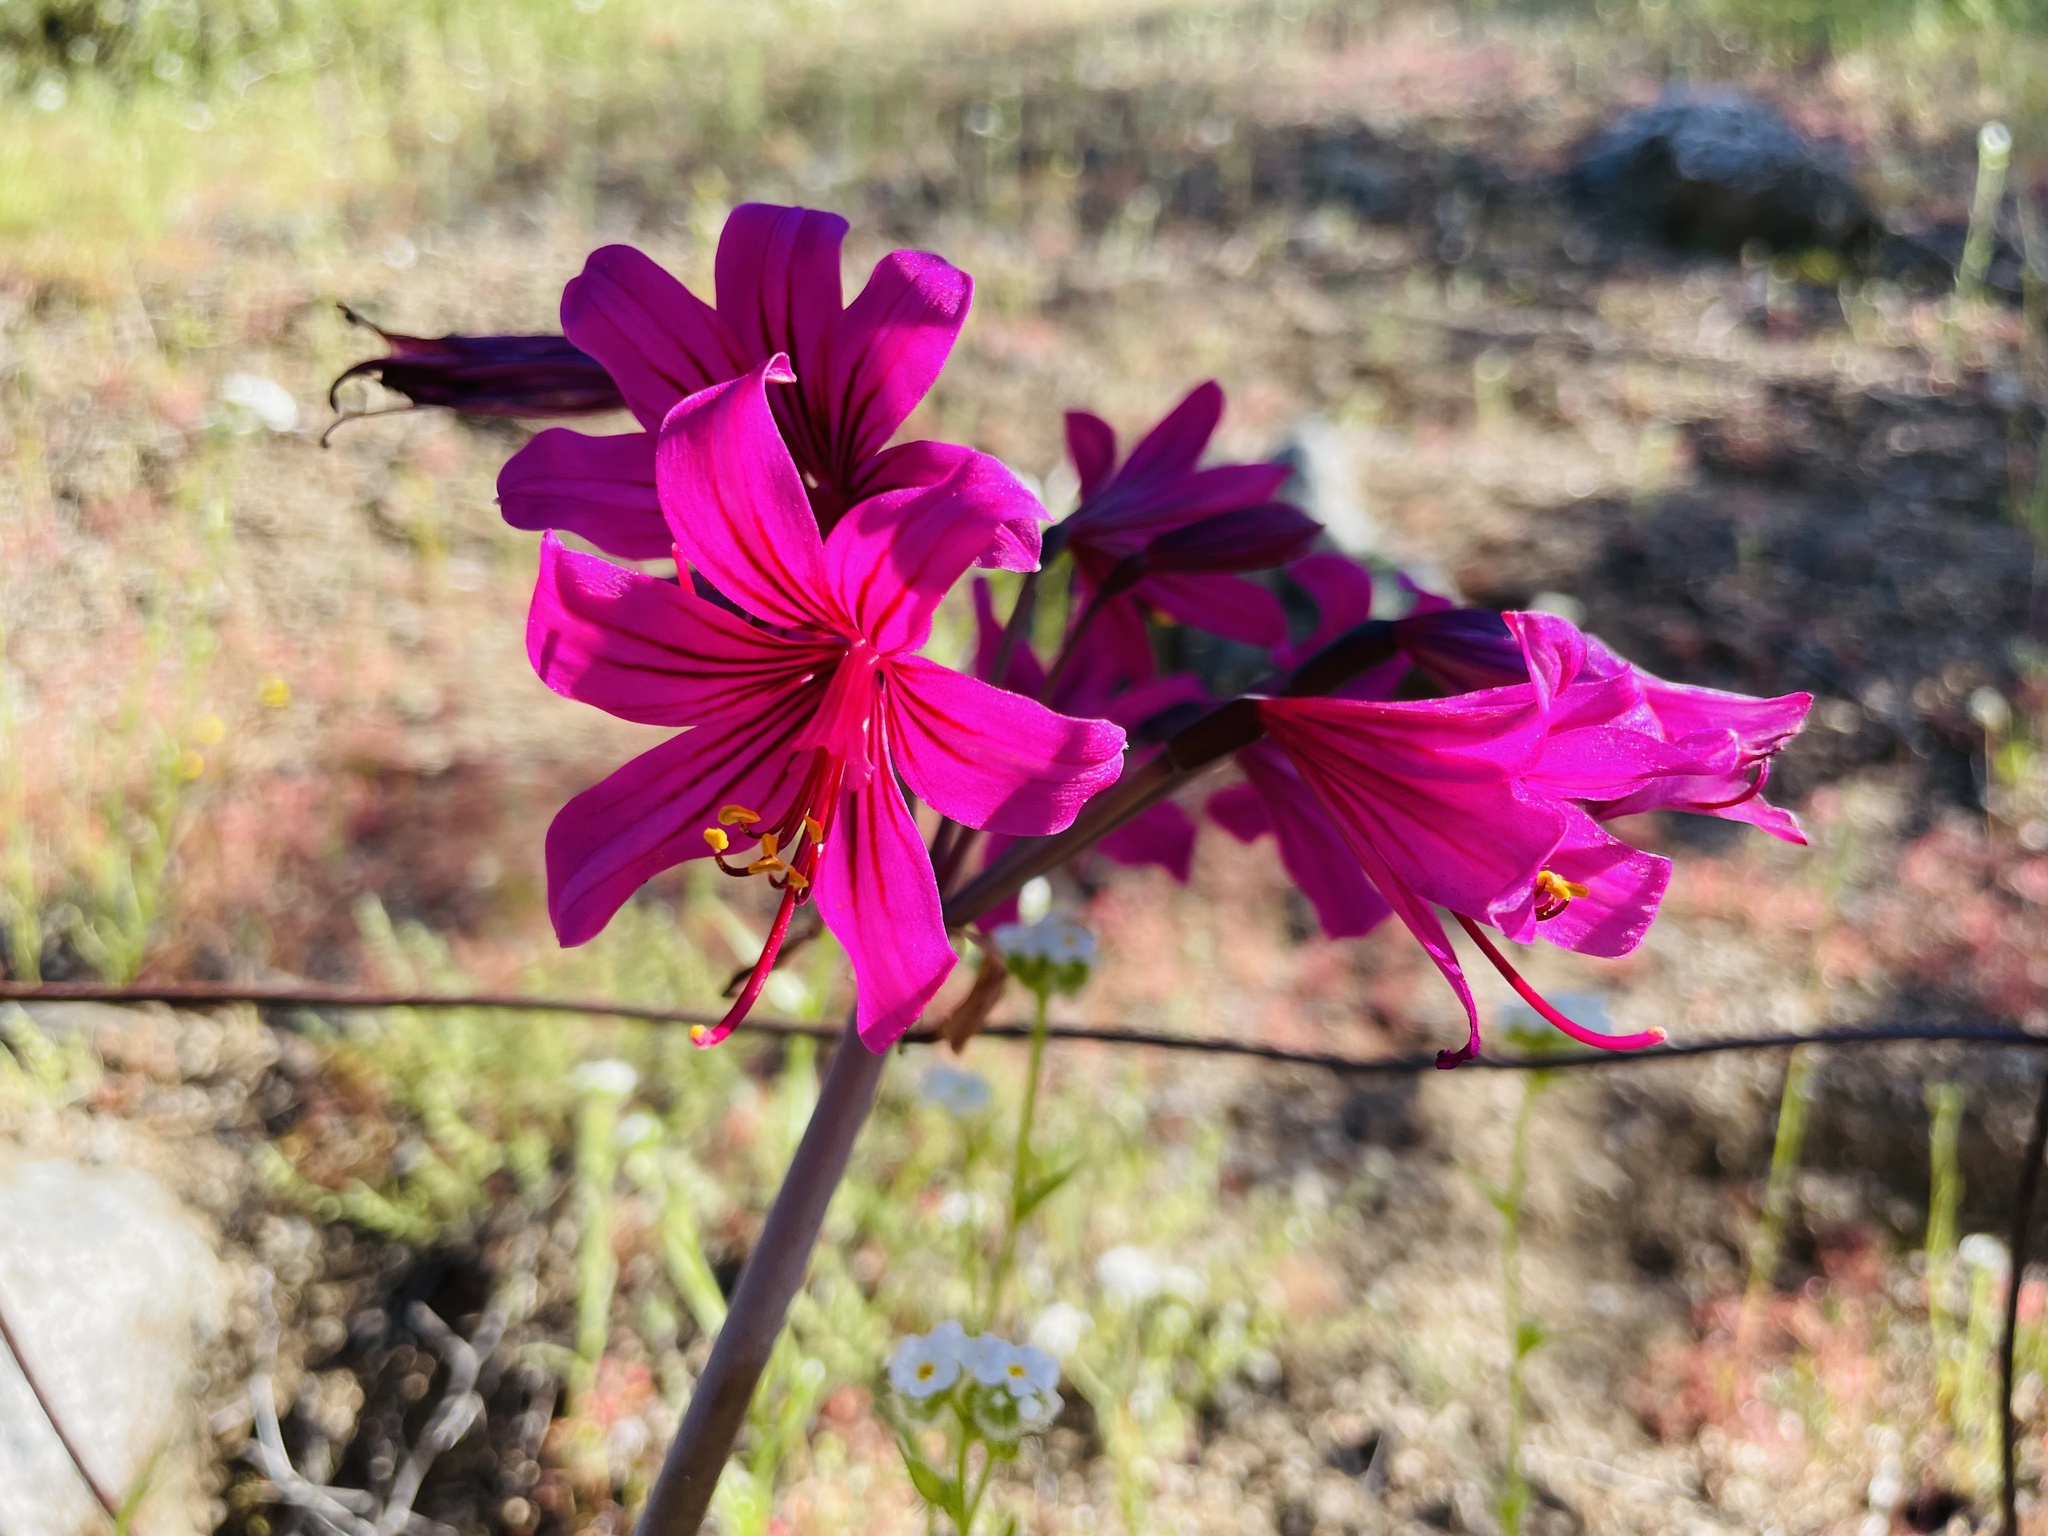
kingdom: Plantae
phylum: Tracheophyta
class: Liliopsida
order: Asparagales
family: Amaryllidaceae
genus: Phycella
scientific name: Phycella amoena
